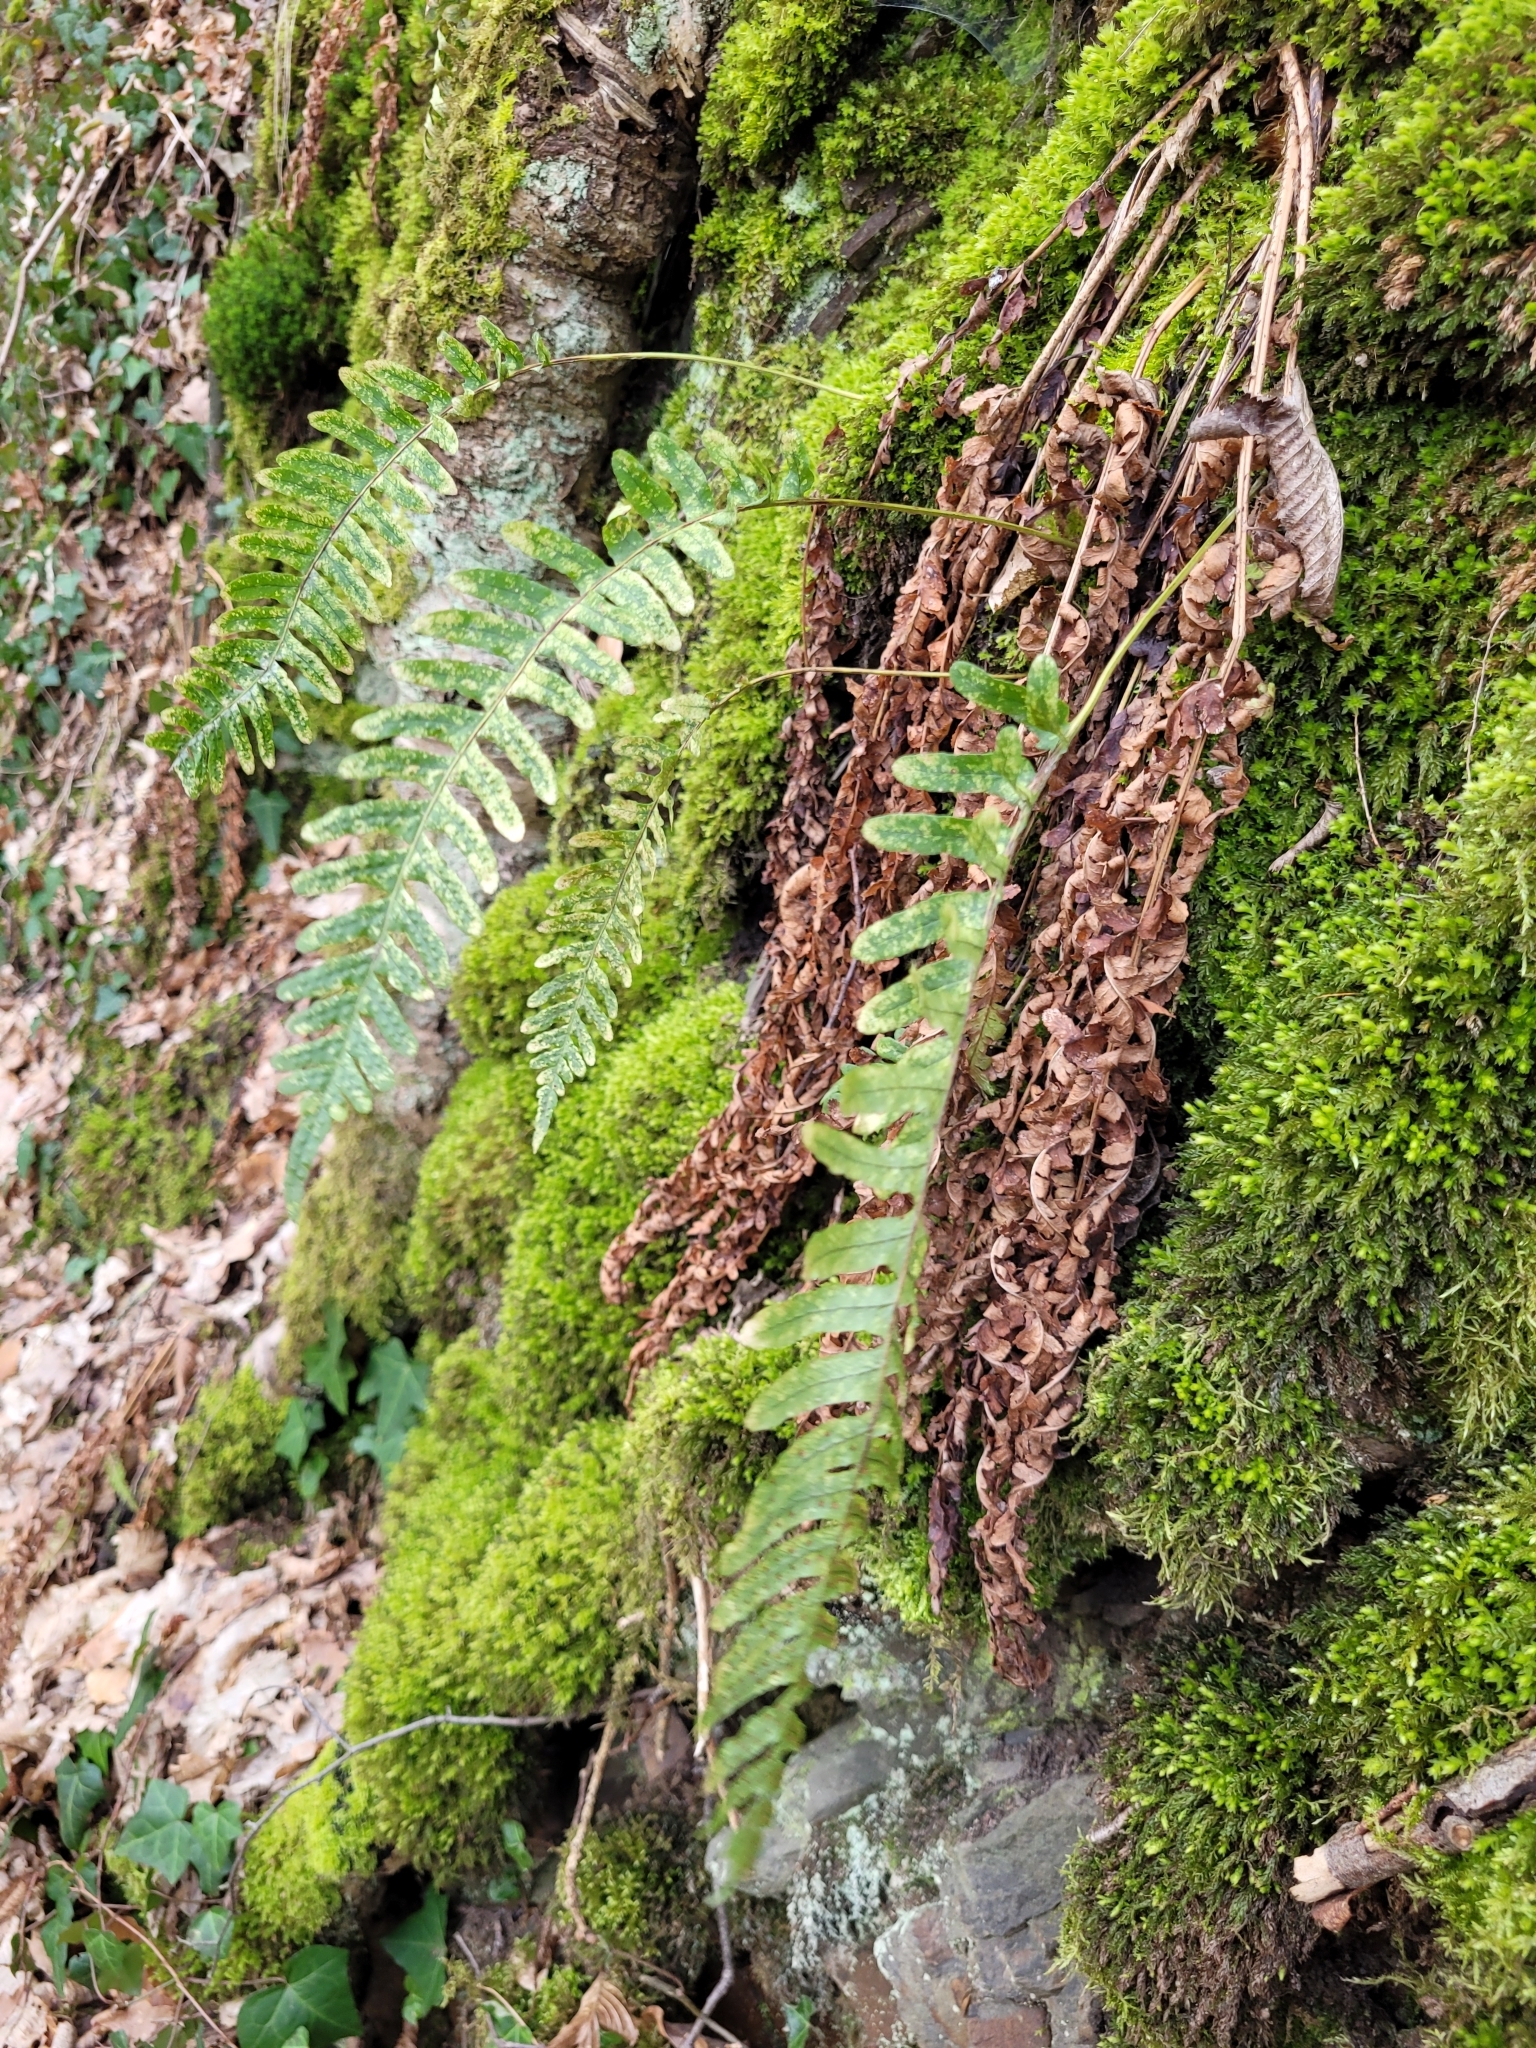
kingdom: Plantae
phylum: Tracheophyta
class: Polypodiopsida
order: Polypodiales
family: Polypodiaceae
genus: Polypodium
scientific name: Polypodium vulgare
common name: Common polypody
